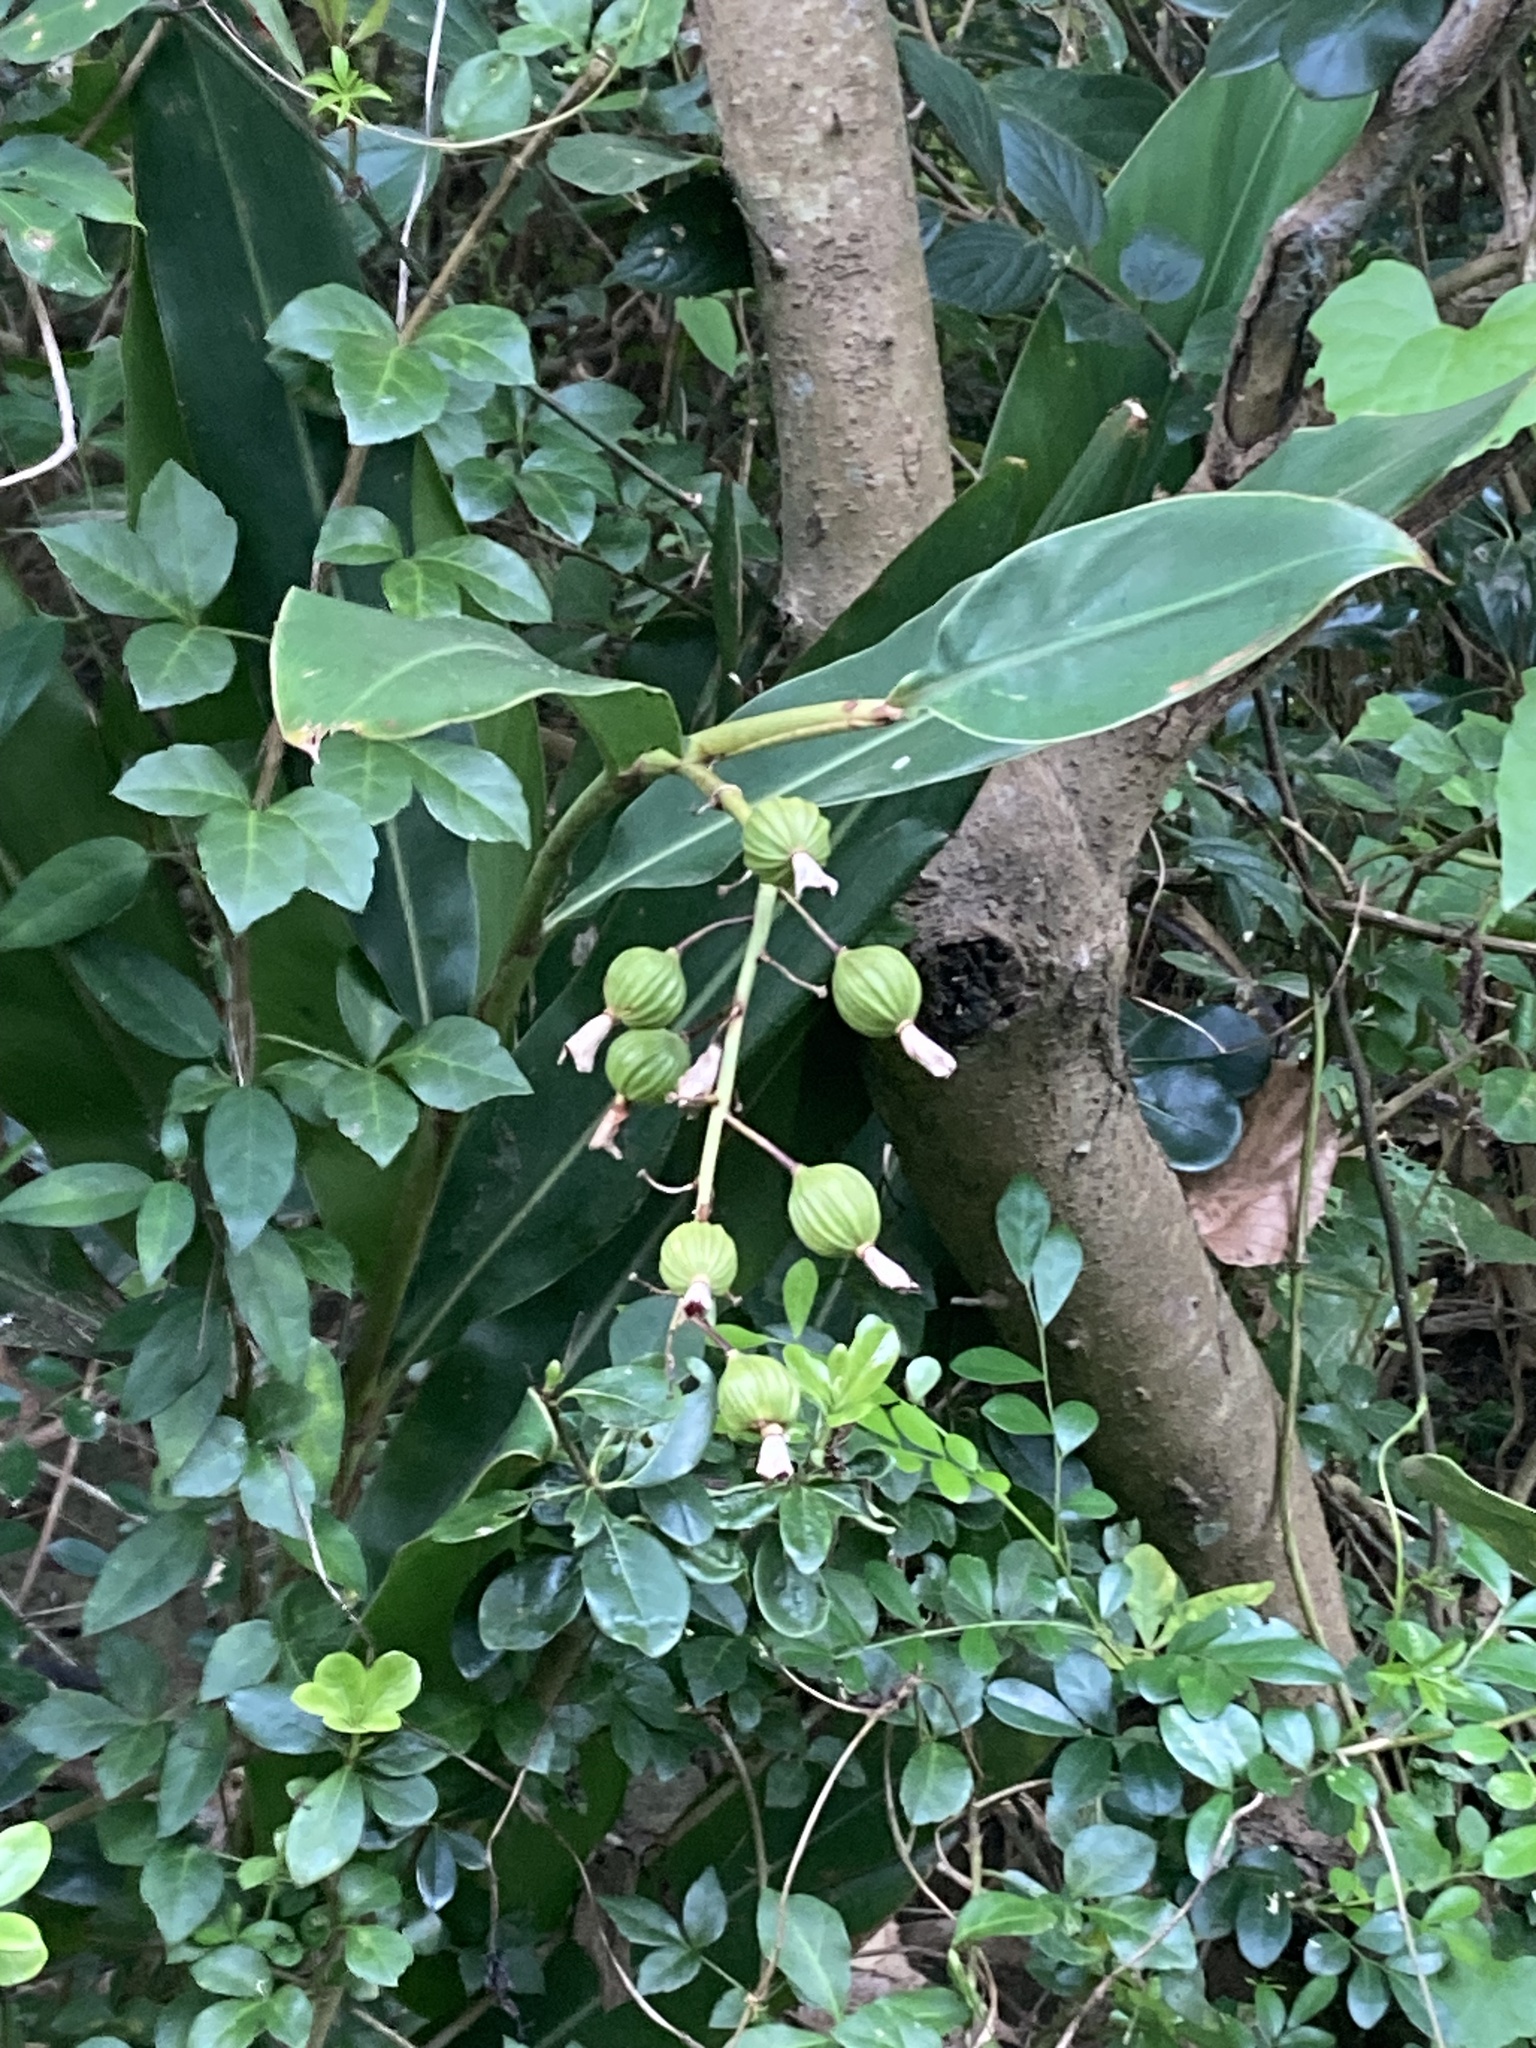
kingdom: Plantae
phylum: Tracheophyta
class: Liliopsida
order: Zingiberales
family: Zingiberaceae
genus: Alpinia
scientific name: Alpinia zerumbet
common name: Shellplant
